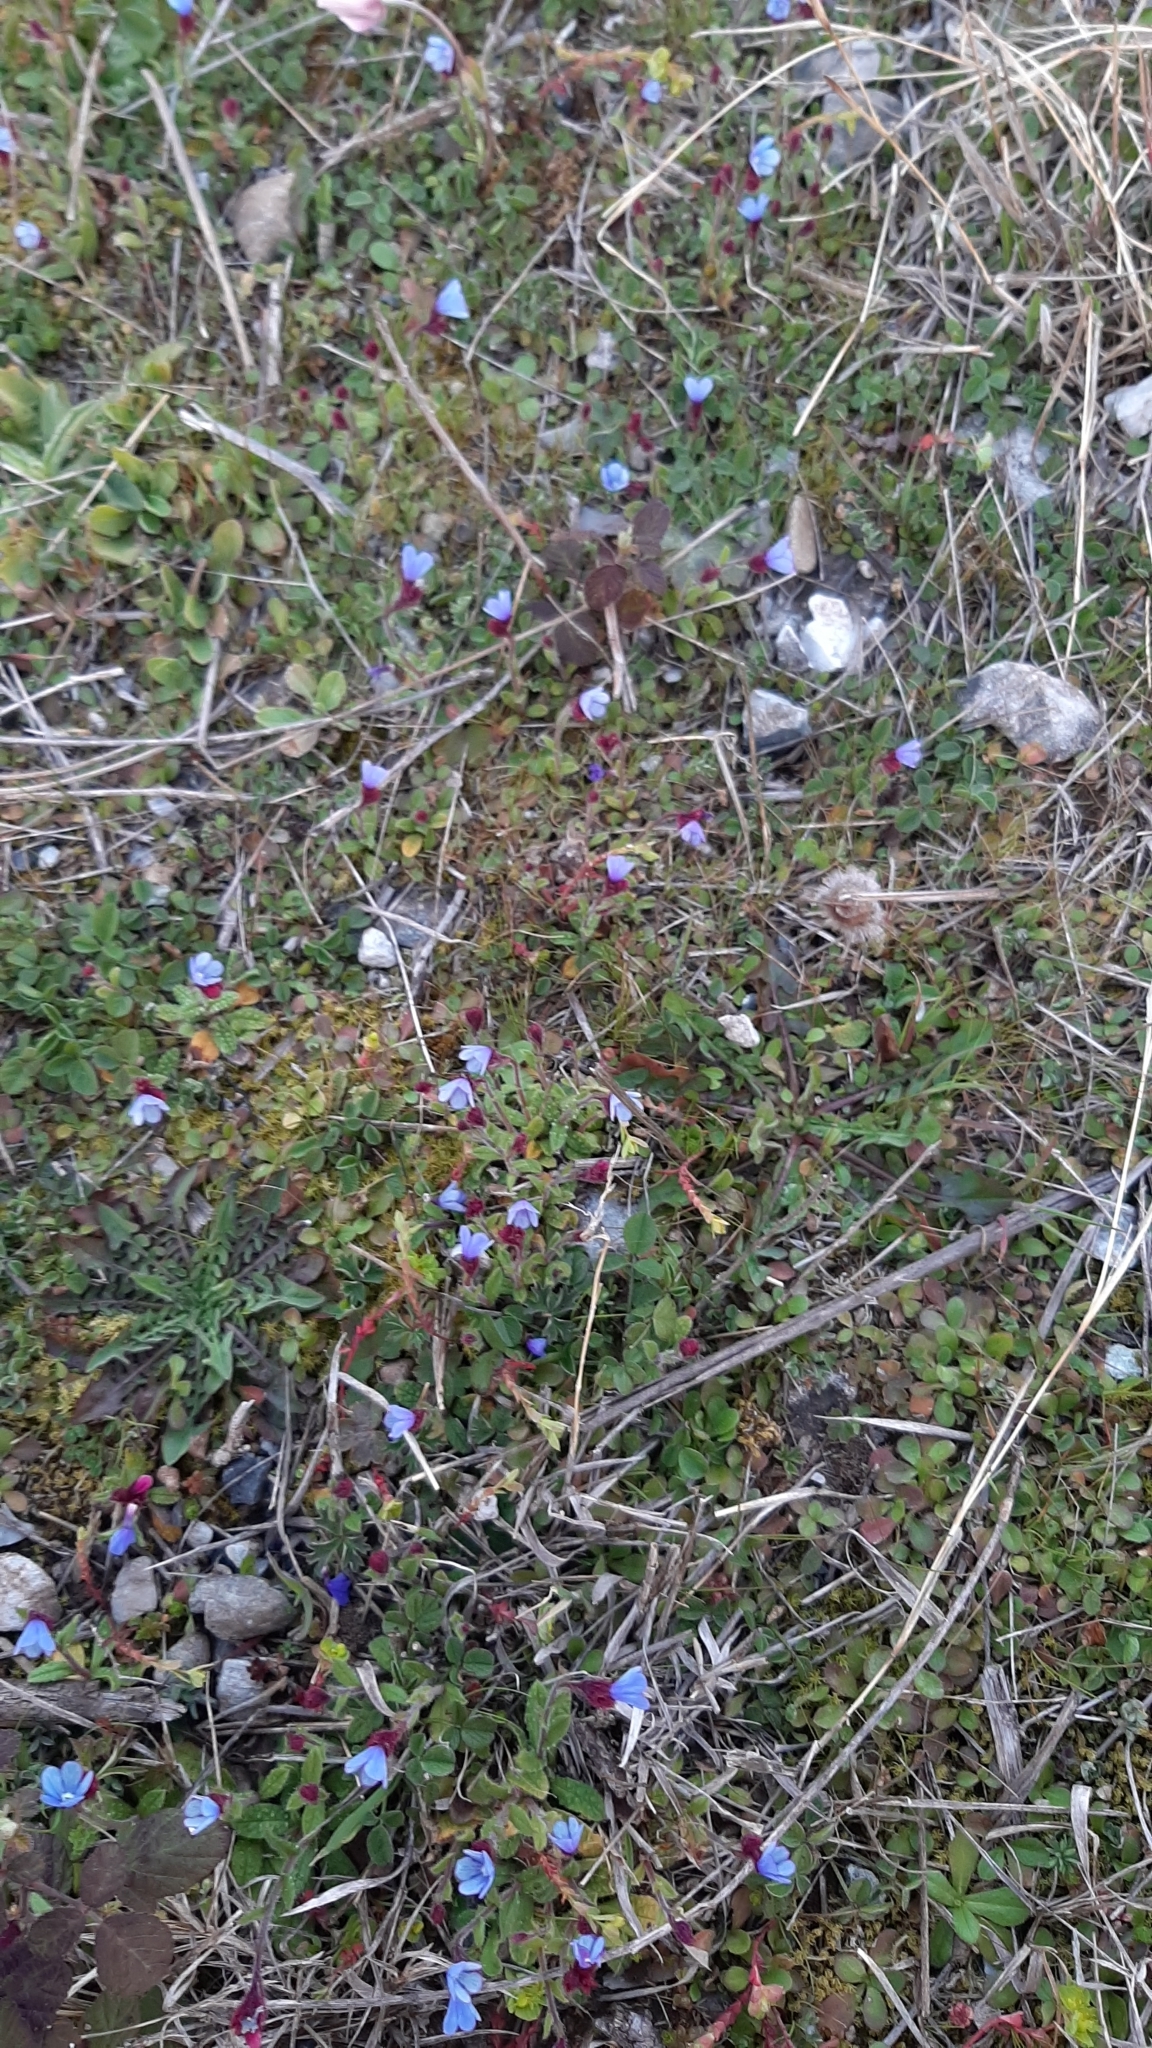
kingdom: Plantae
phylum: Tracheophyta
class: Magnoliopsida
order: Boraginales
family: Boraginaceae
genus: Anchusella
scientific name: Anchusella cretica
